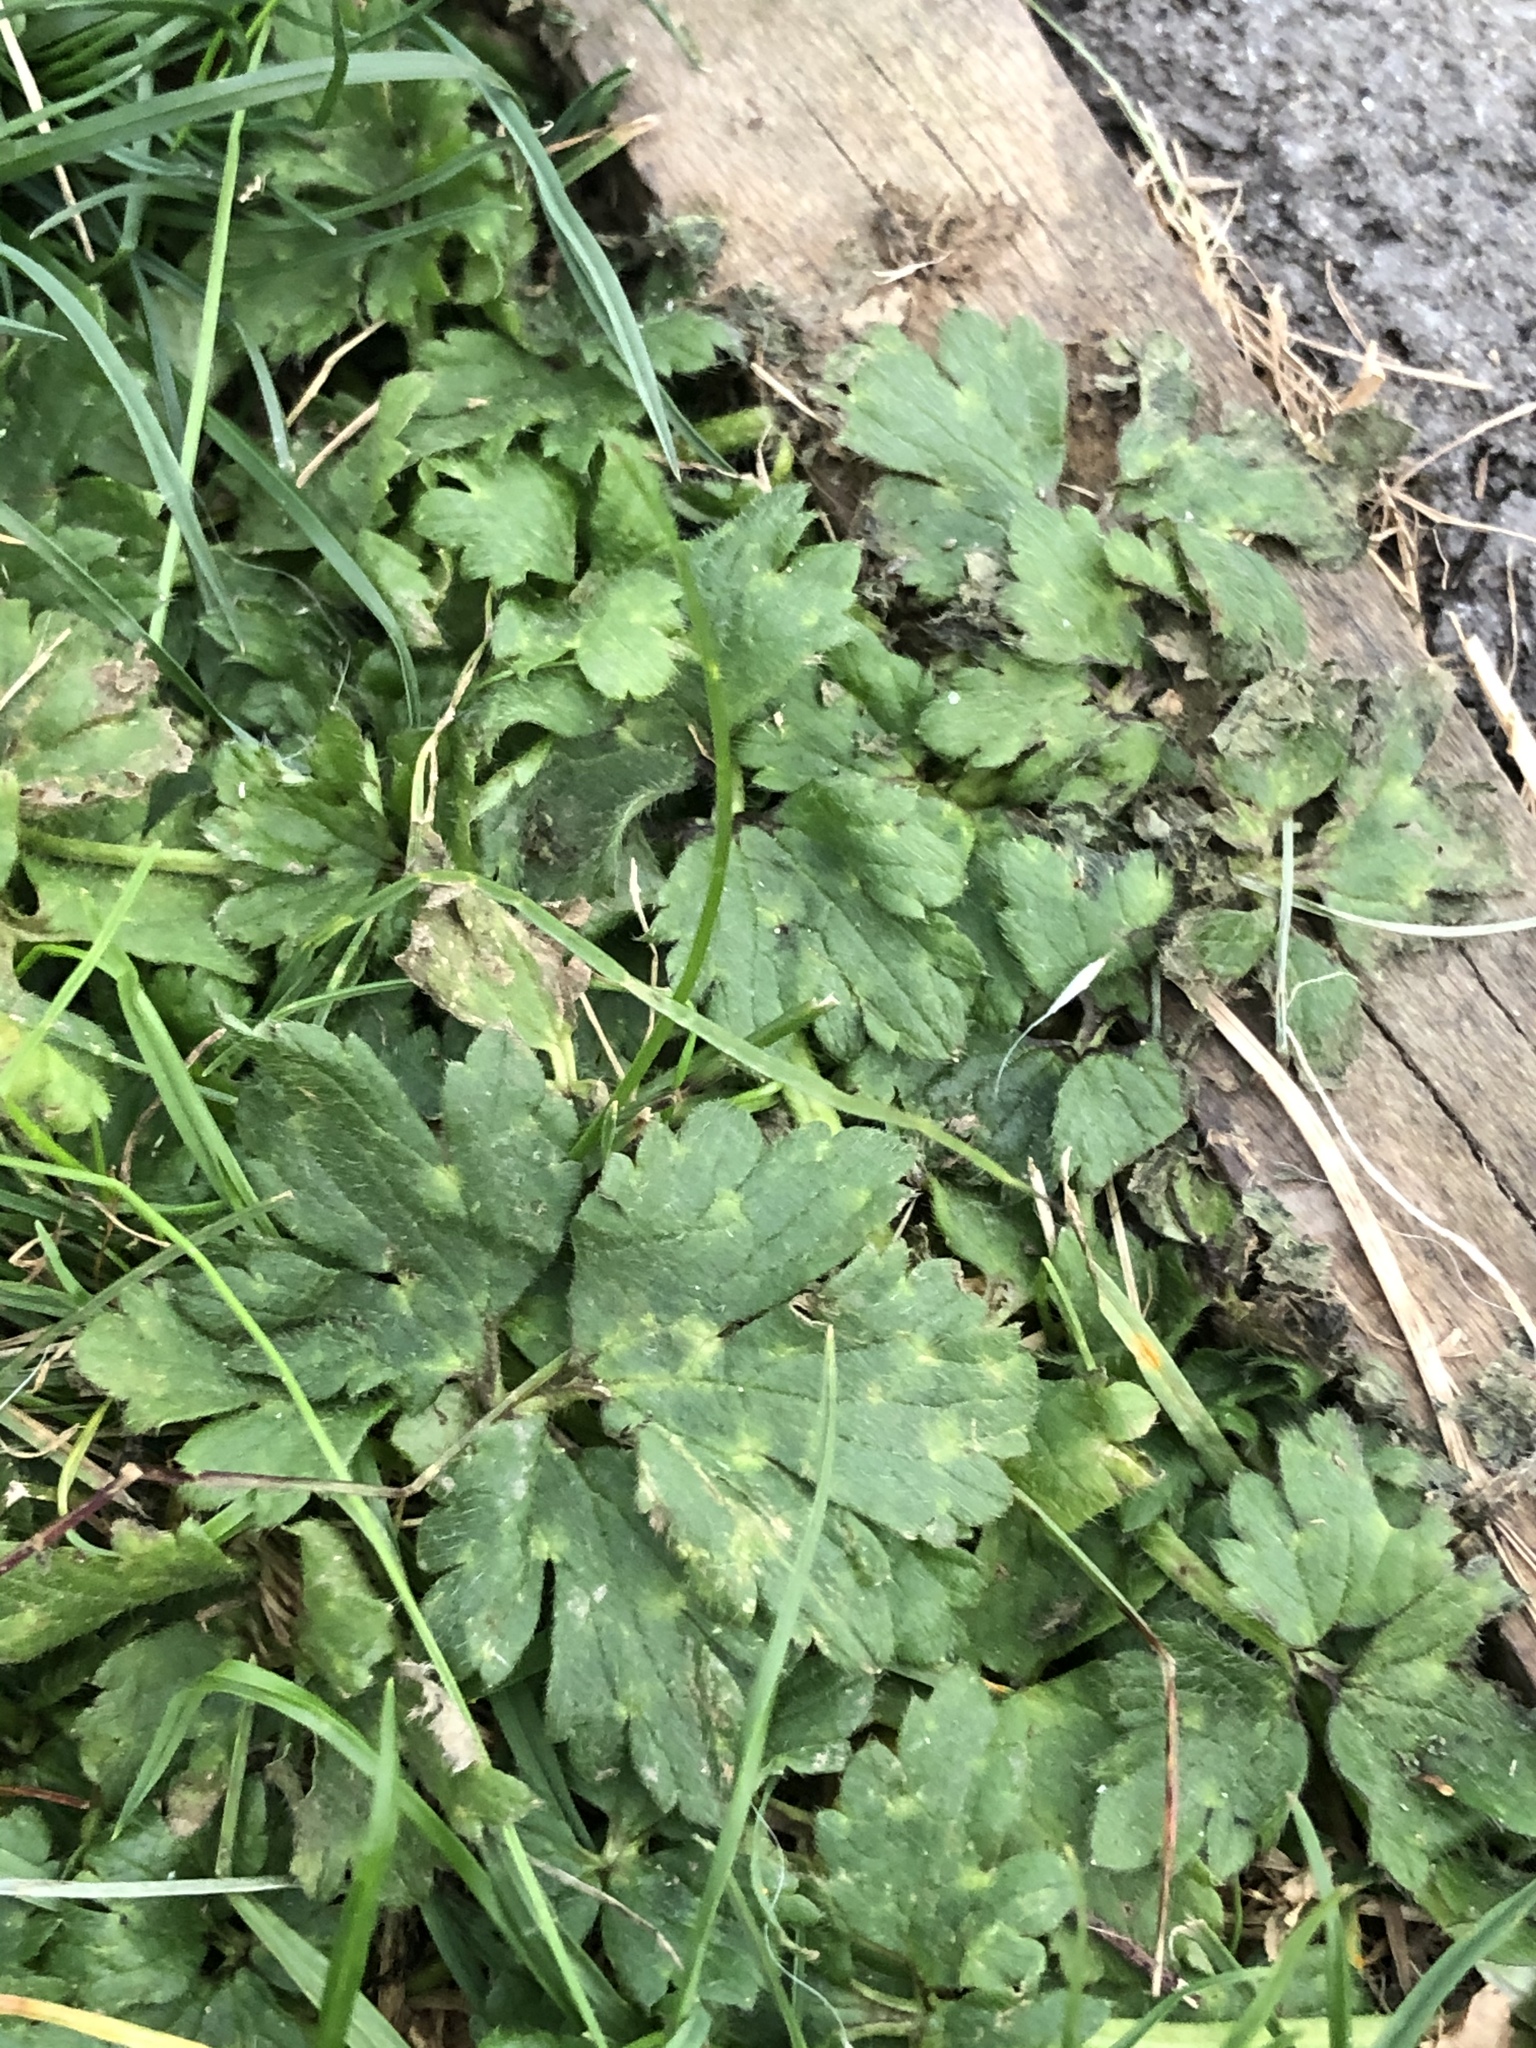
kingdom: Plantae
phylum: Tracheophyta
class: Magnoliopsida
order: Ranunculales
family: Ranunculaceae
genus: Ranunculus
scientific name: Ranunculus repens
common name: Creeping buttercup
